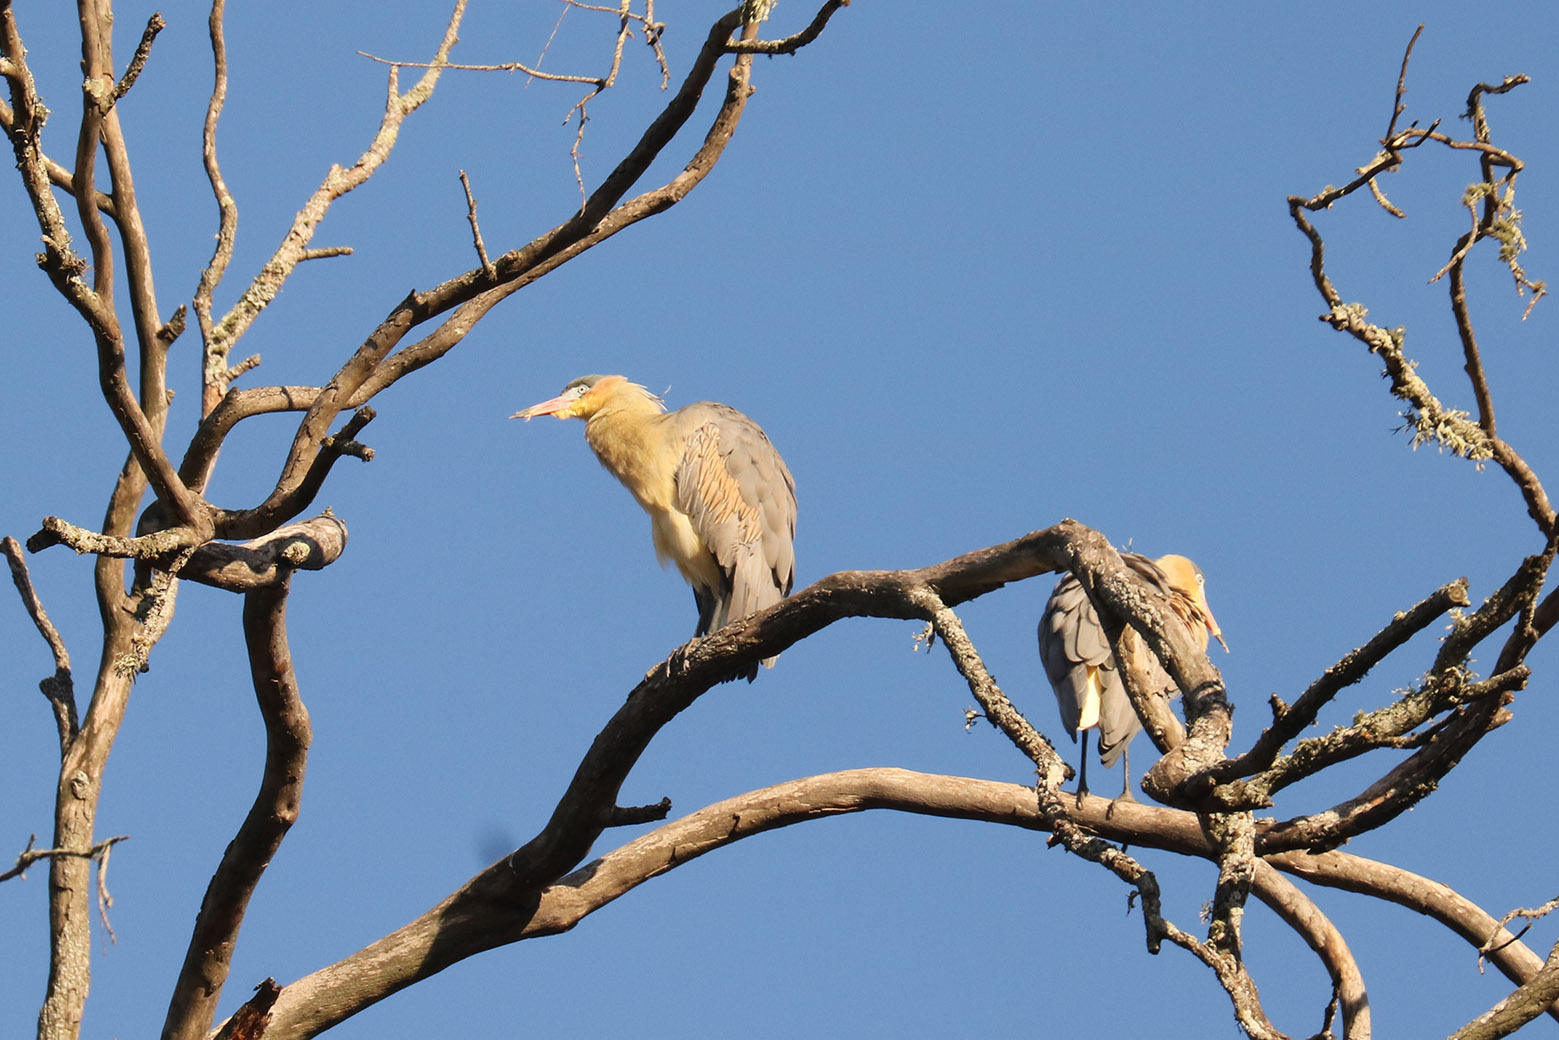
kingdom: Animalia
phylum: Chordata
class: Aves
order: Pelecaniformes
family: Ardeidae
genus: Syrigma
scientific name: Syrigma sibilatrix
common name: Whistling heron
